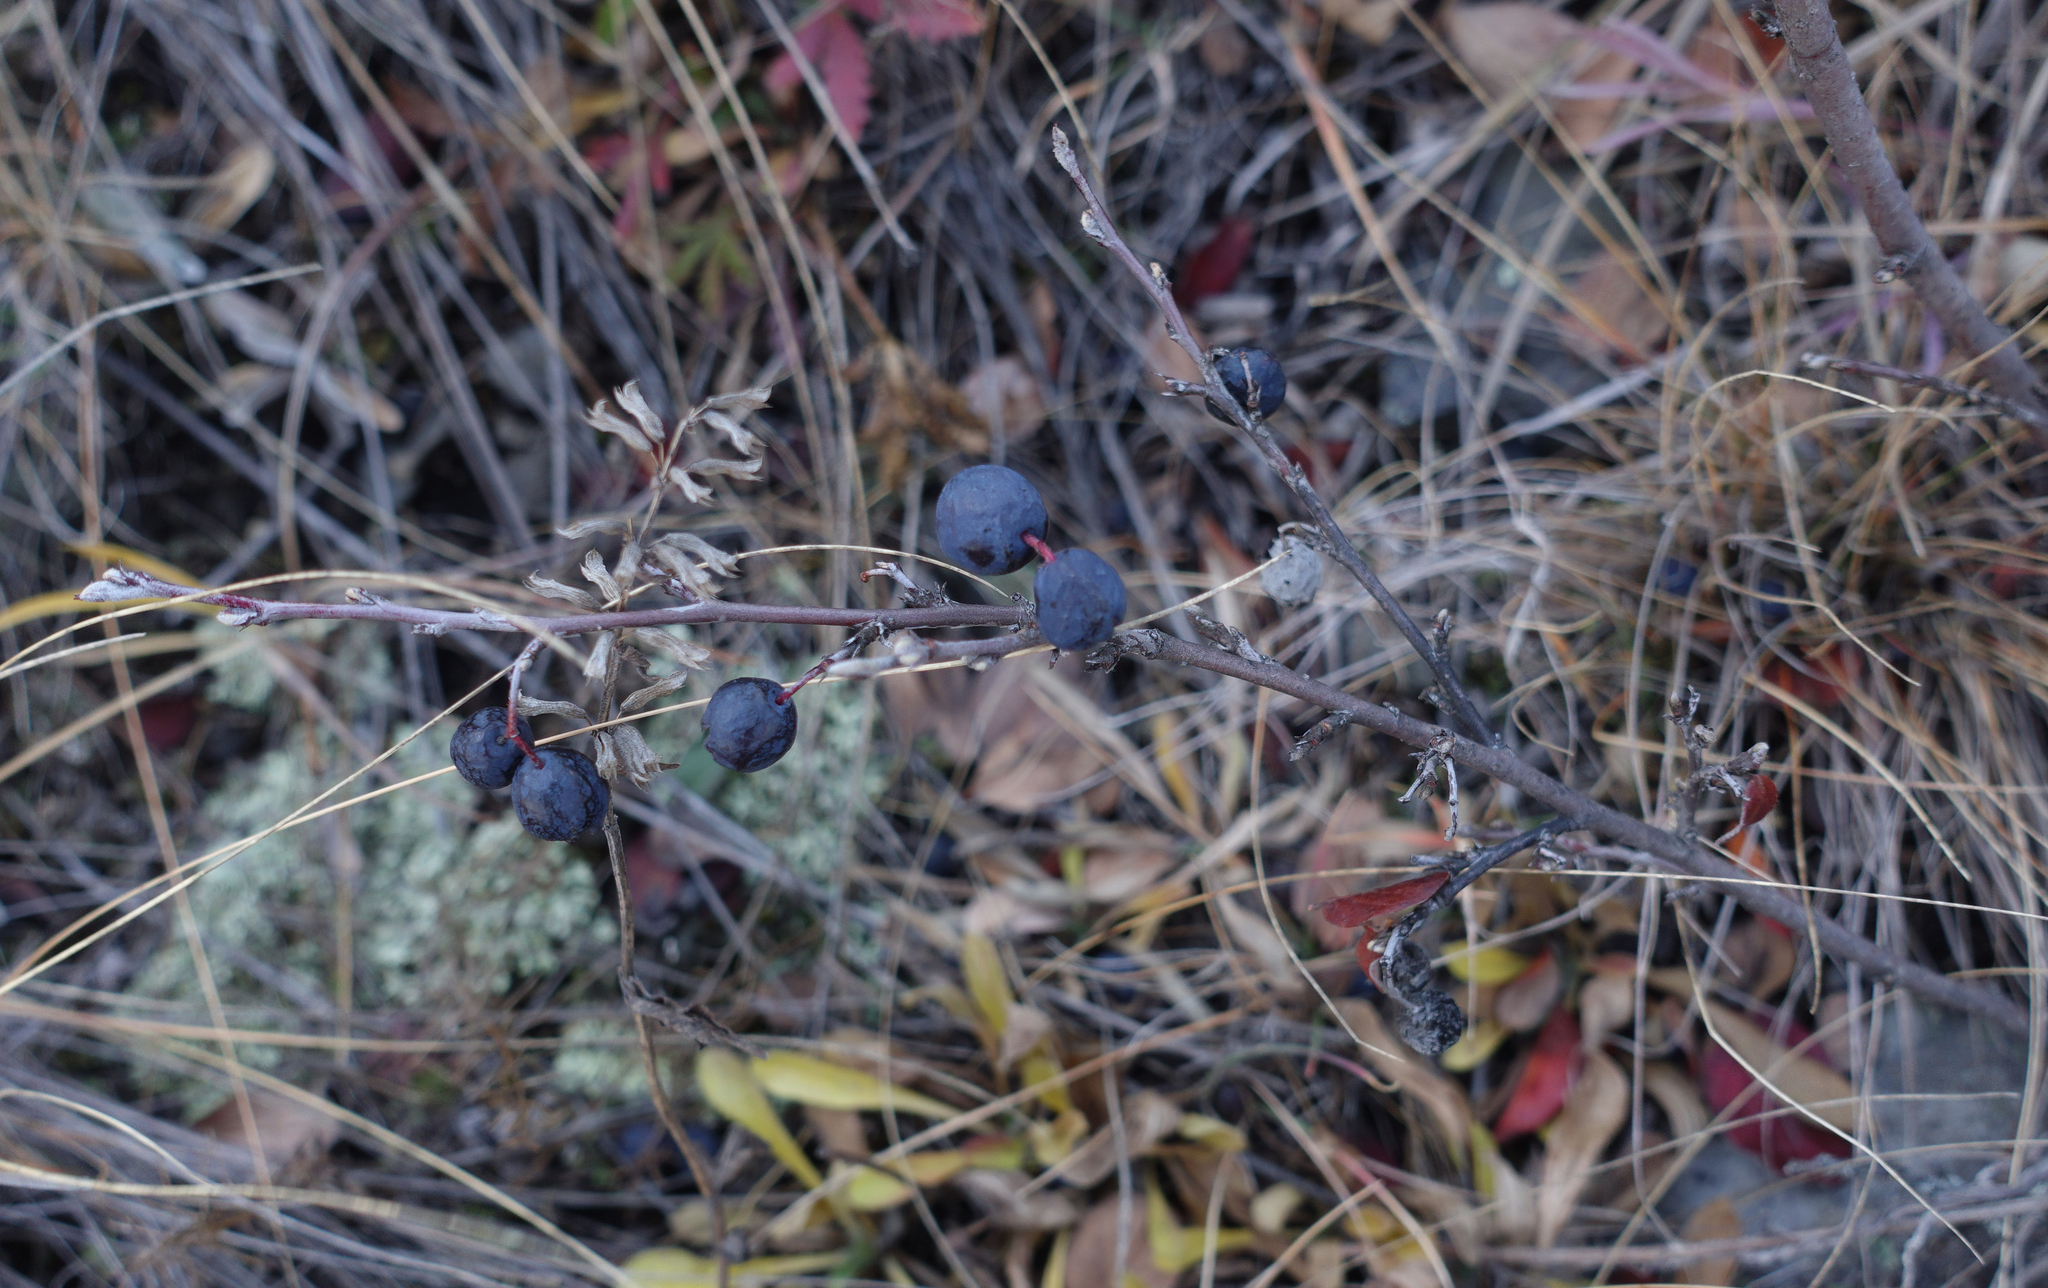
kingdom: Plantae
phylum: Tracheophyta
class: Magnoliopsida
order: Rosales
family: Rosaceae
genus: Cotoneaster
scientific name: Cotoneaster melanocarpus
